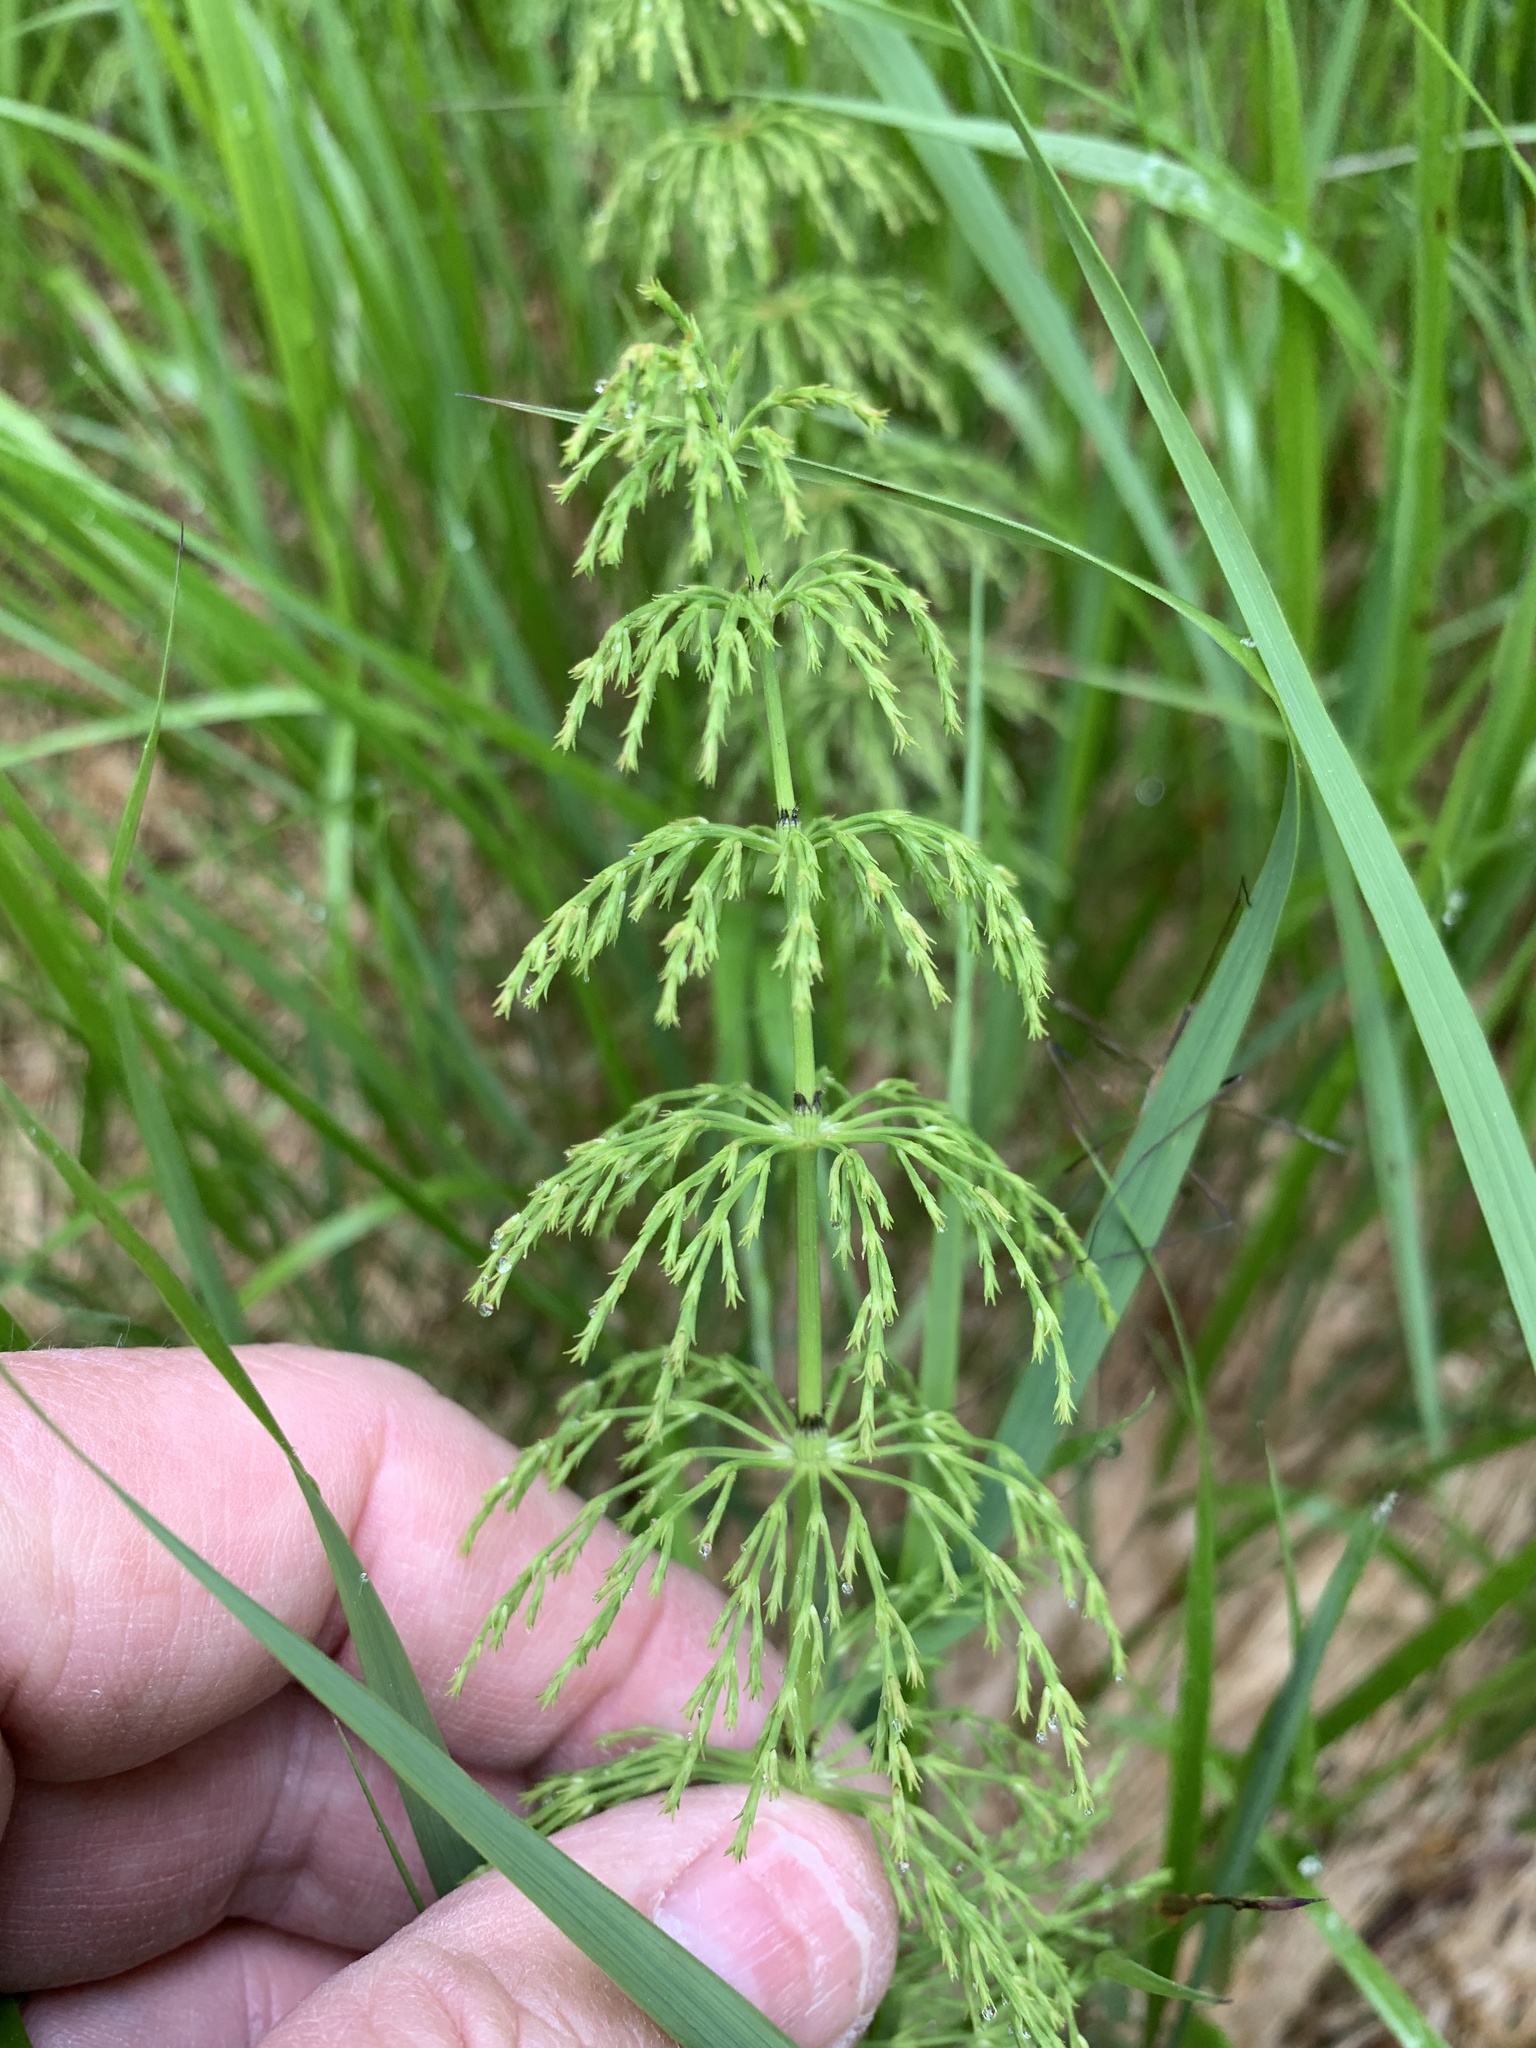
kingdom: Plantae
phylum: Tracheophyta
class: Polypodiopsida
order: Equisetales
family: Equisetaceae
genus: Equisetum
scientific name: Equisetum sylvaticum
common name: Wood horsetail
